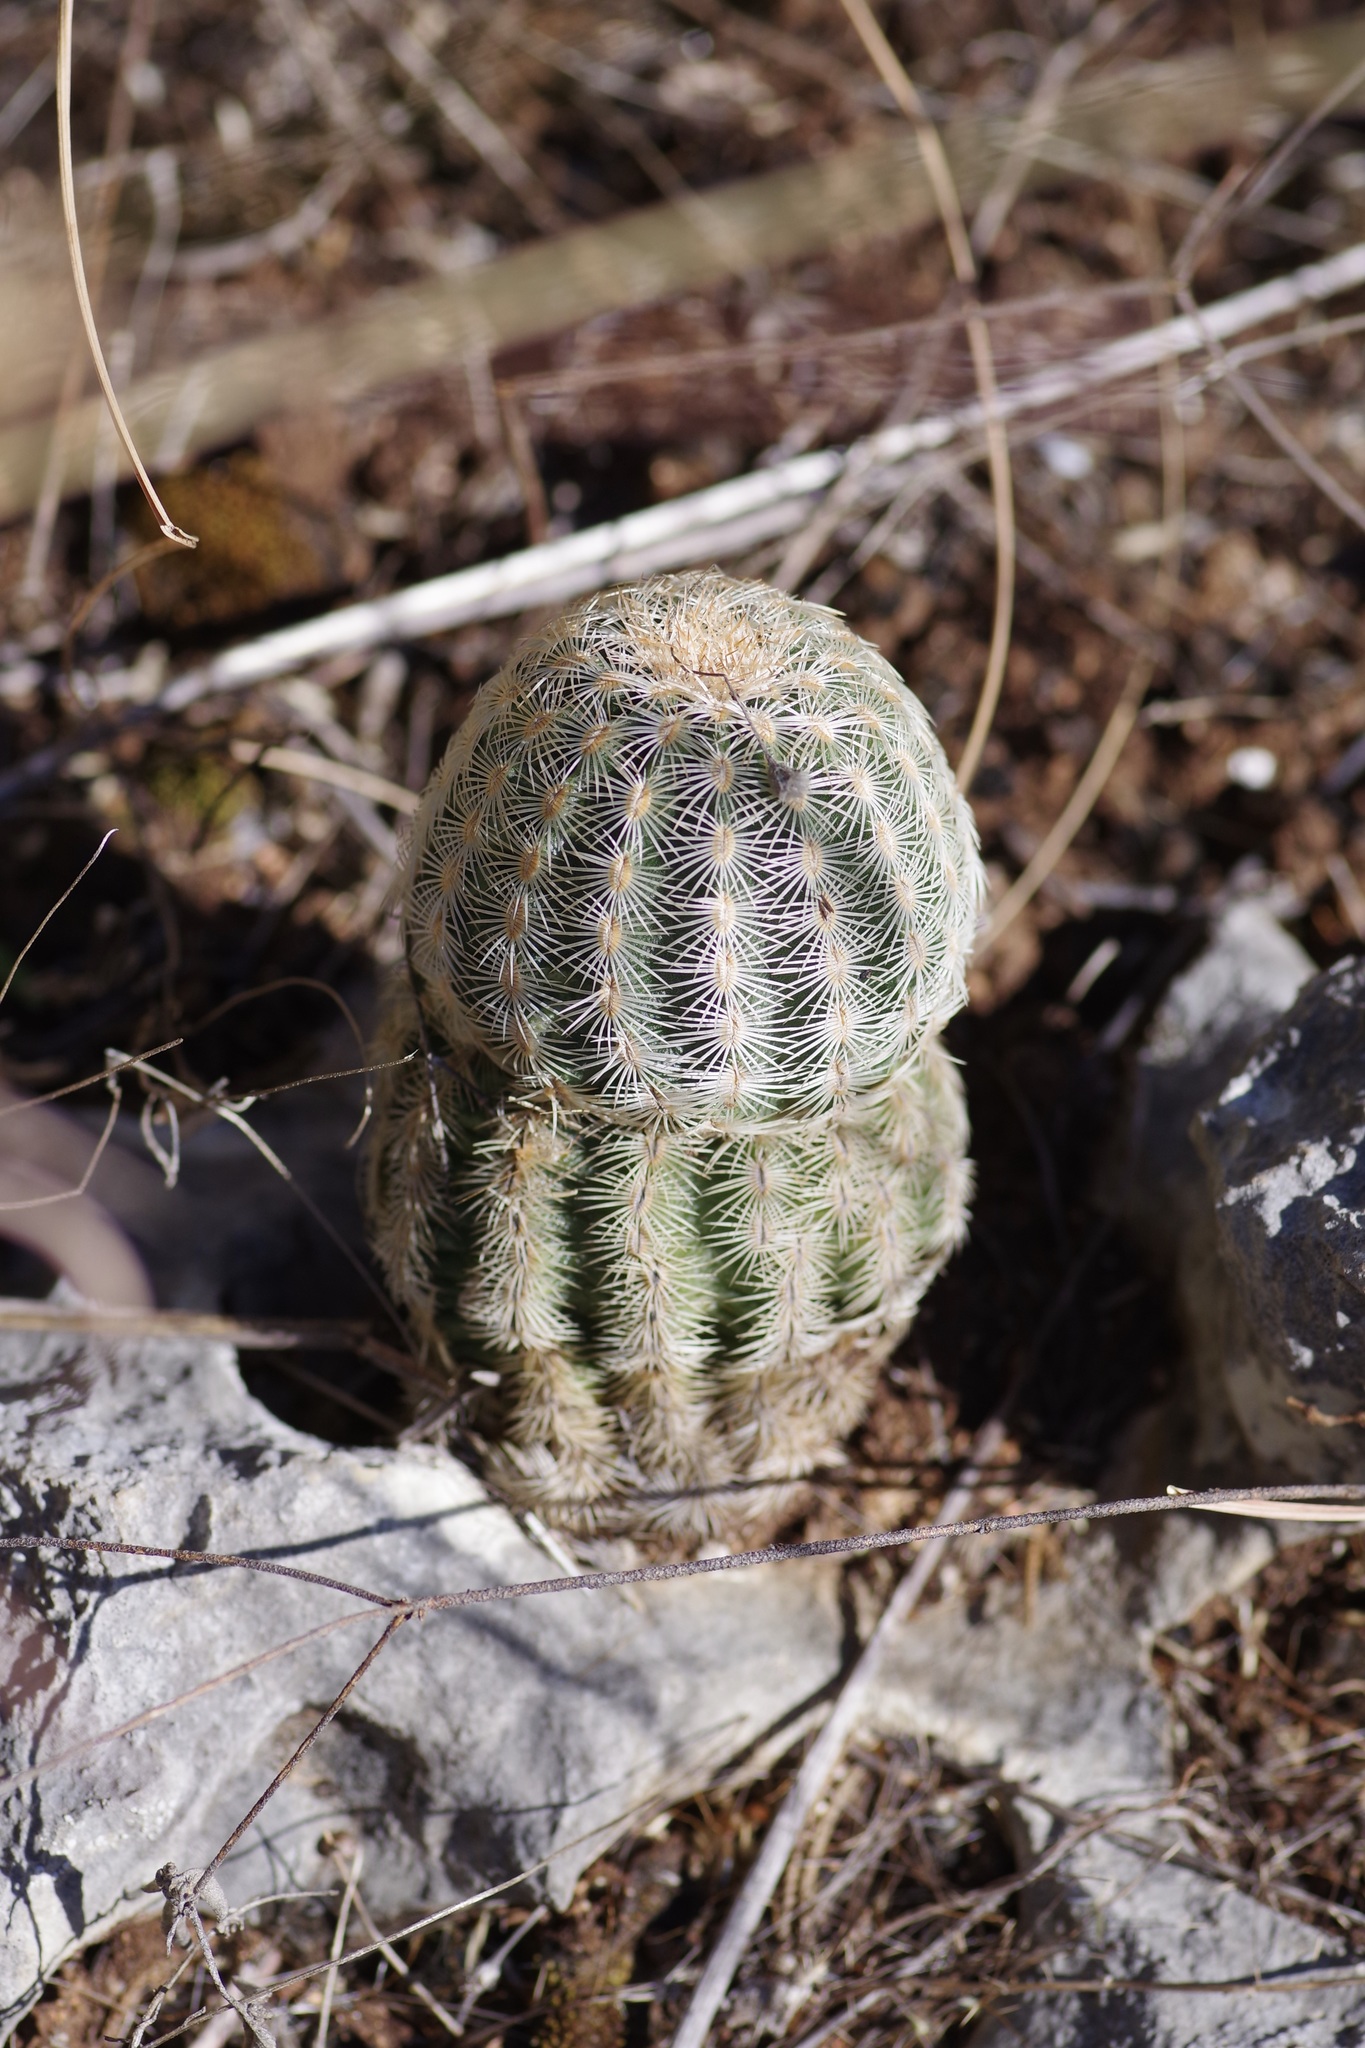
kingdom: Plantae
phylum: Tracheophyta
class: Magnoliopsida
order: Caryophyllales
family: Cactaceae
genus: Echinocereus
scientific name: Echinocereus reichenbachii
